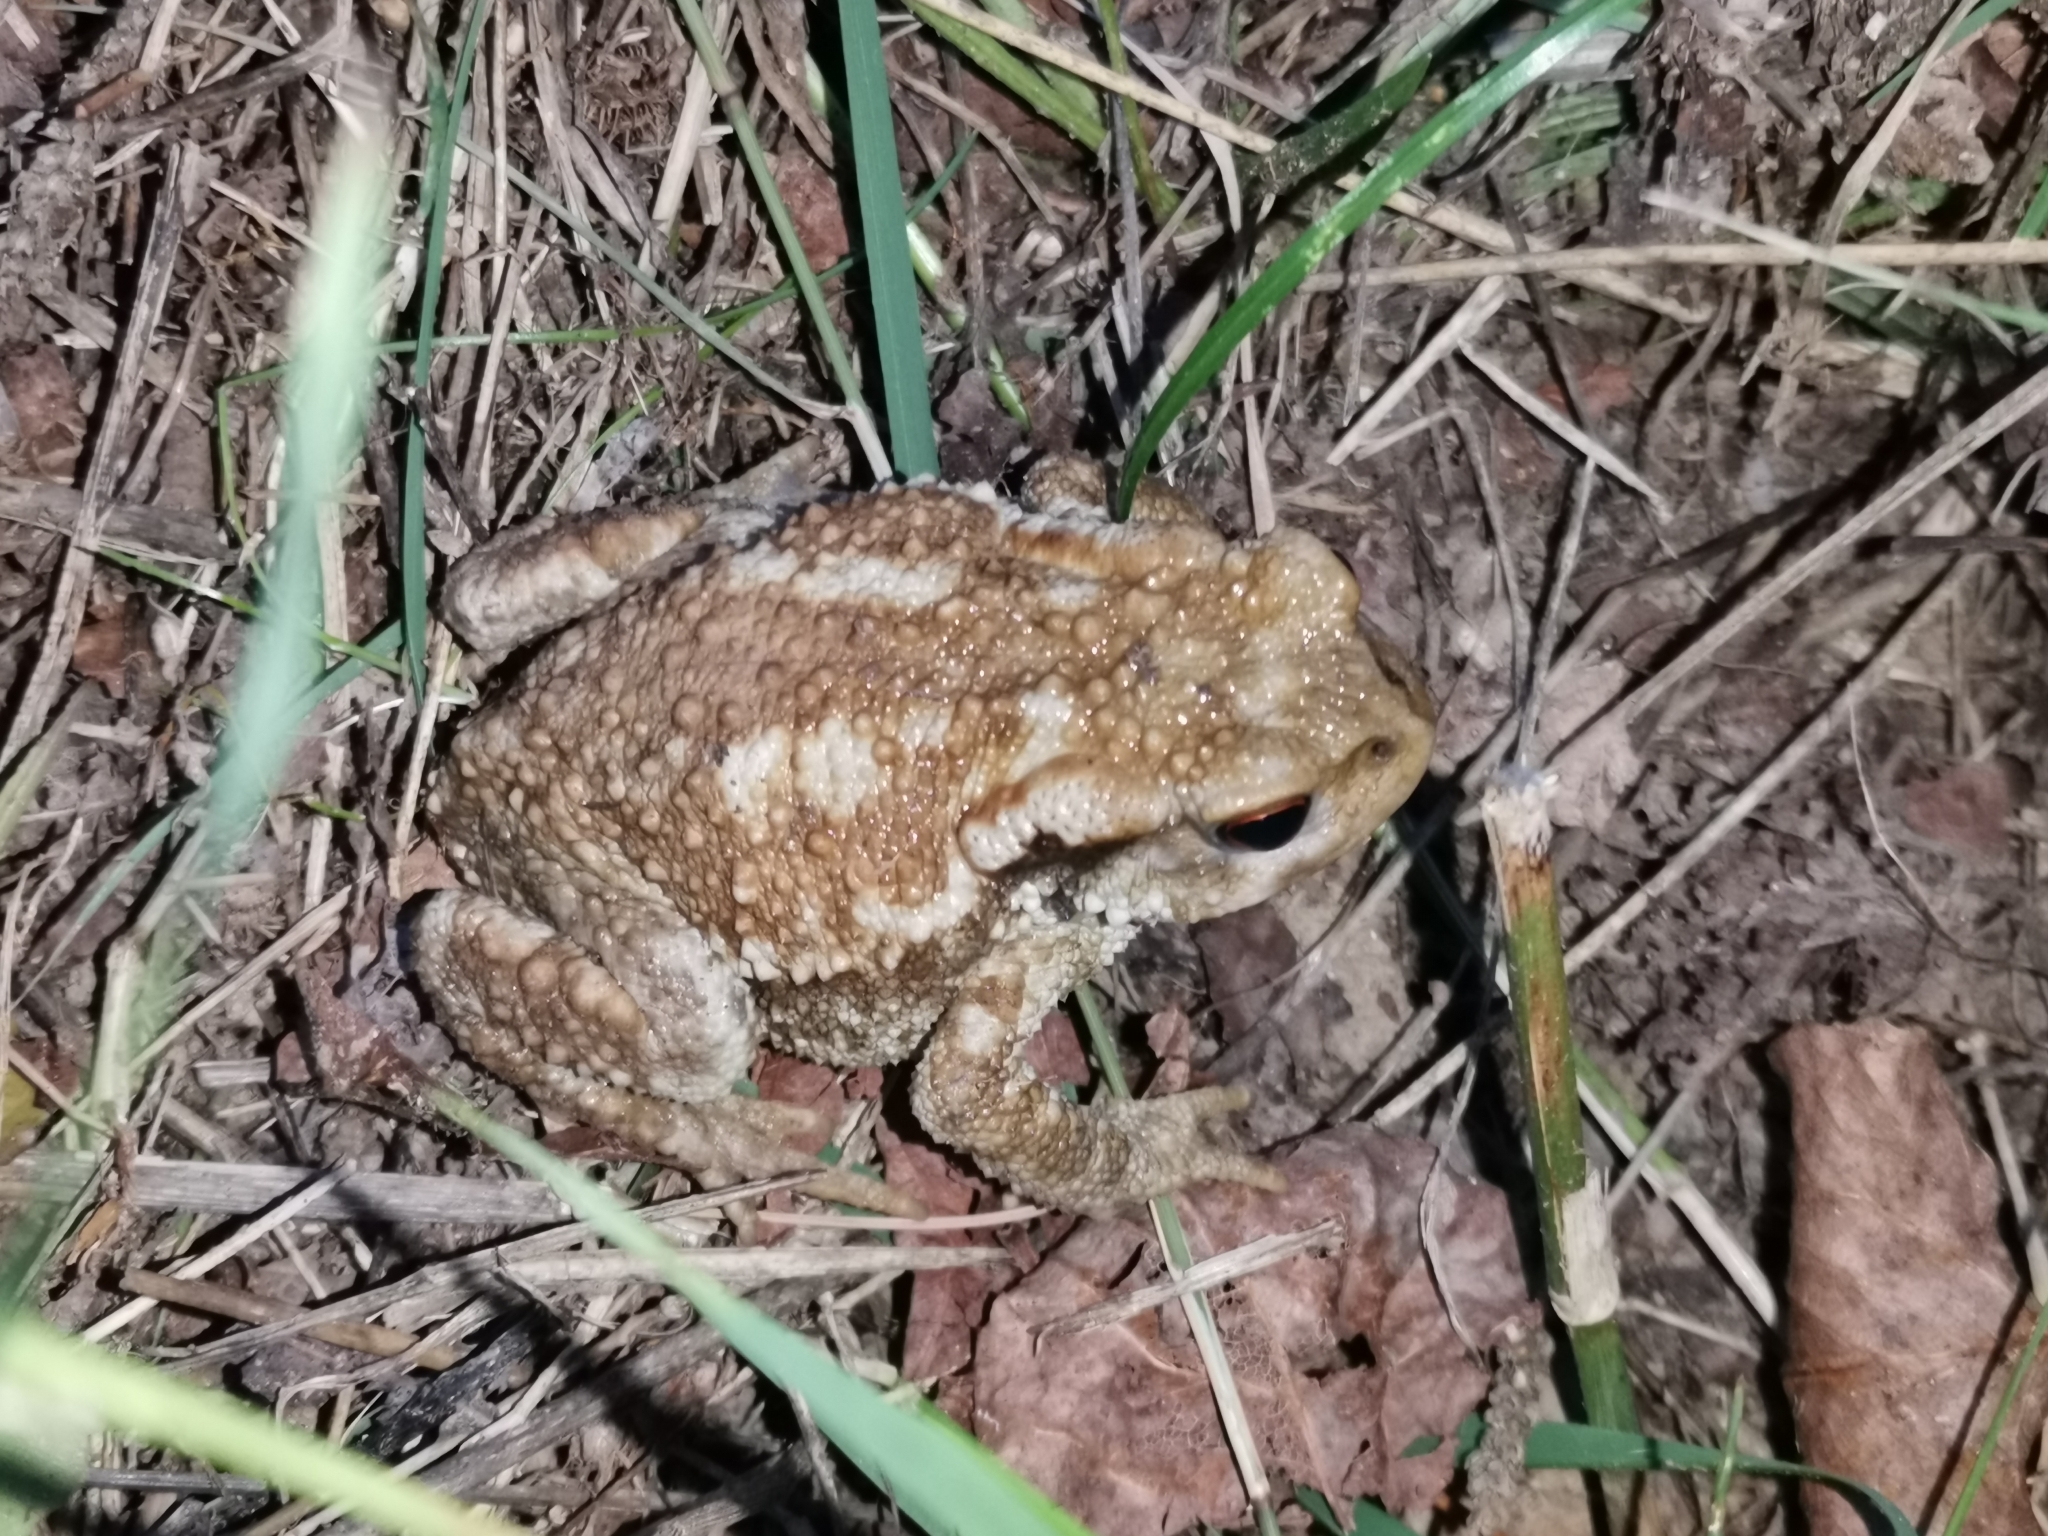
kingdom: Animalia
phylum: Chordata
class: Amphibia
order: Anura
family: Bufonidae
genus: Bufo
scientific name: Bufo spinosus
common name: Western common toad
